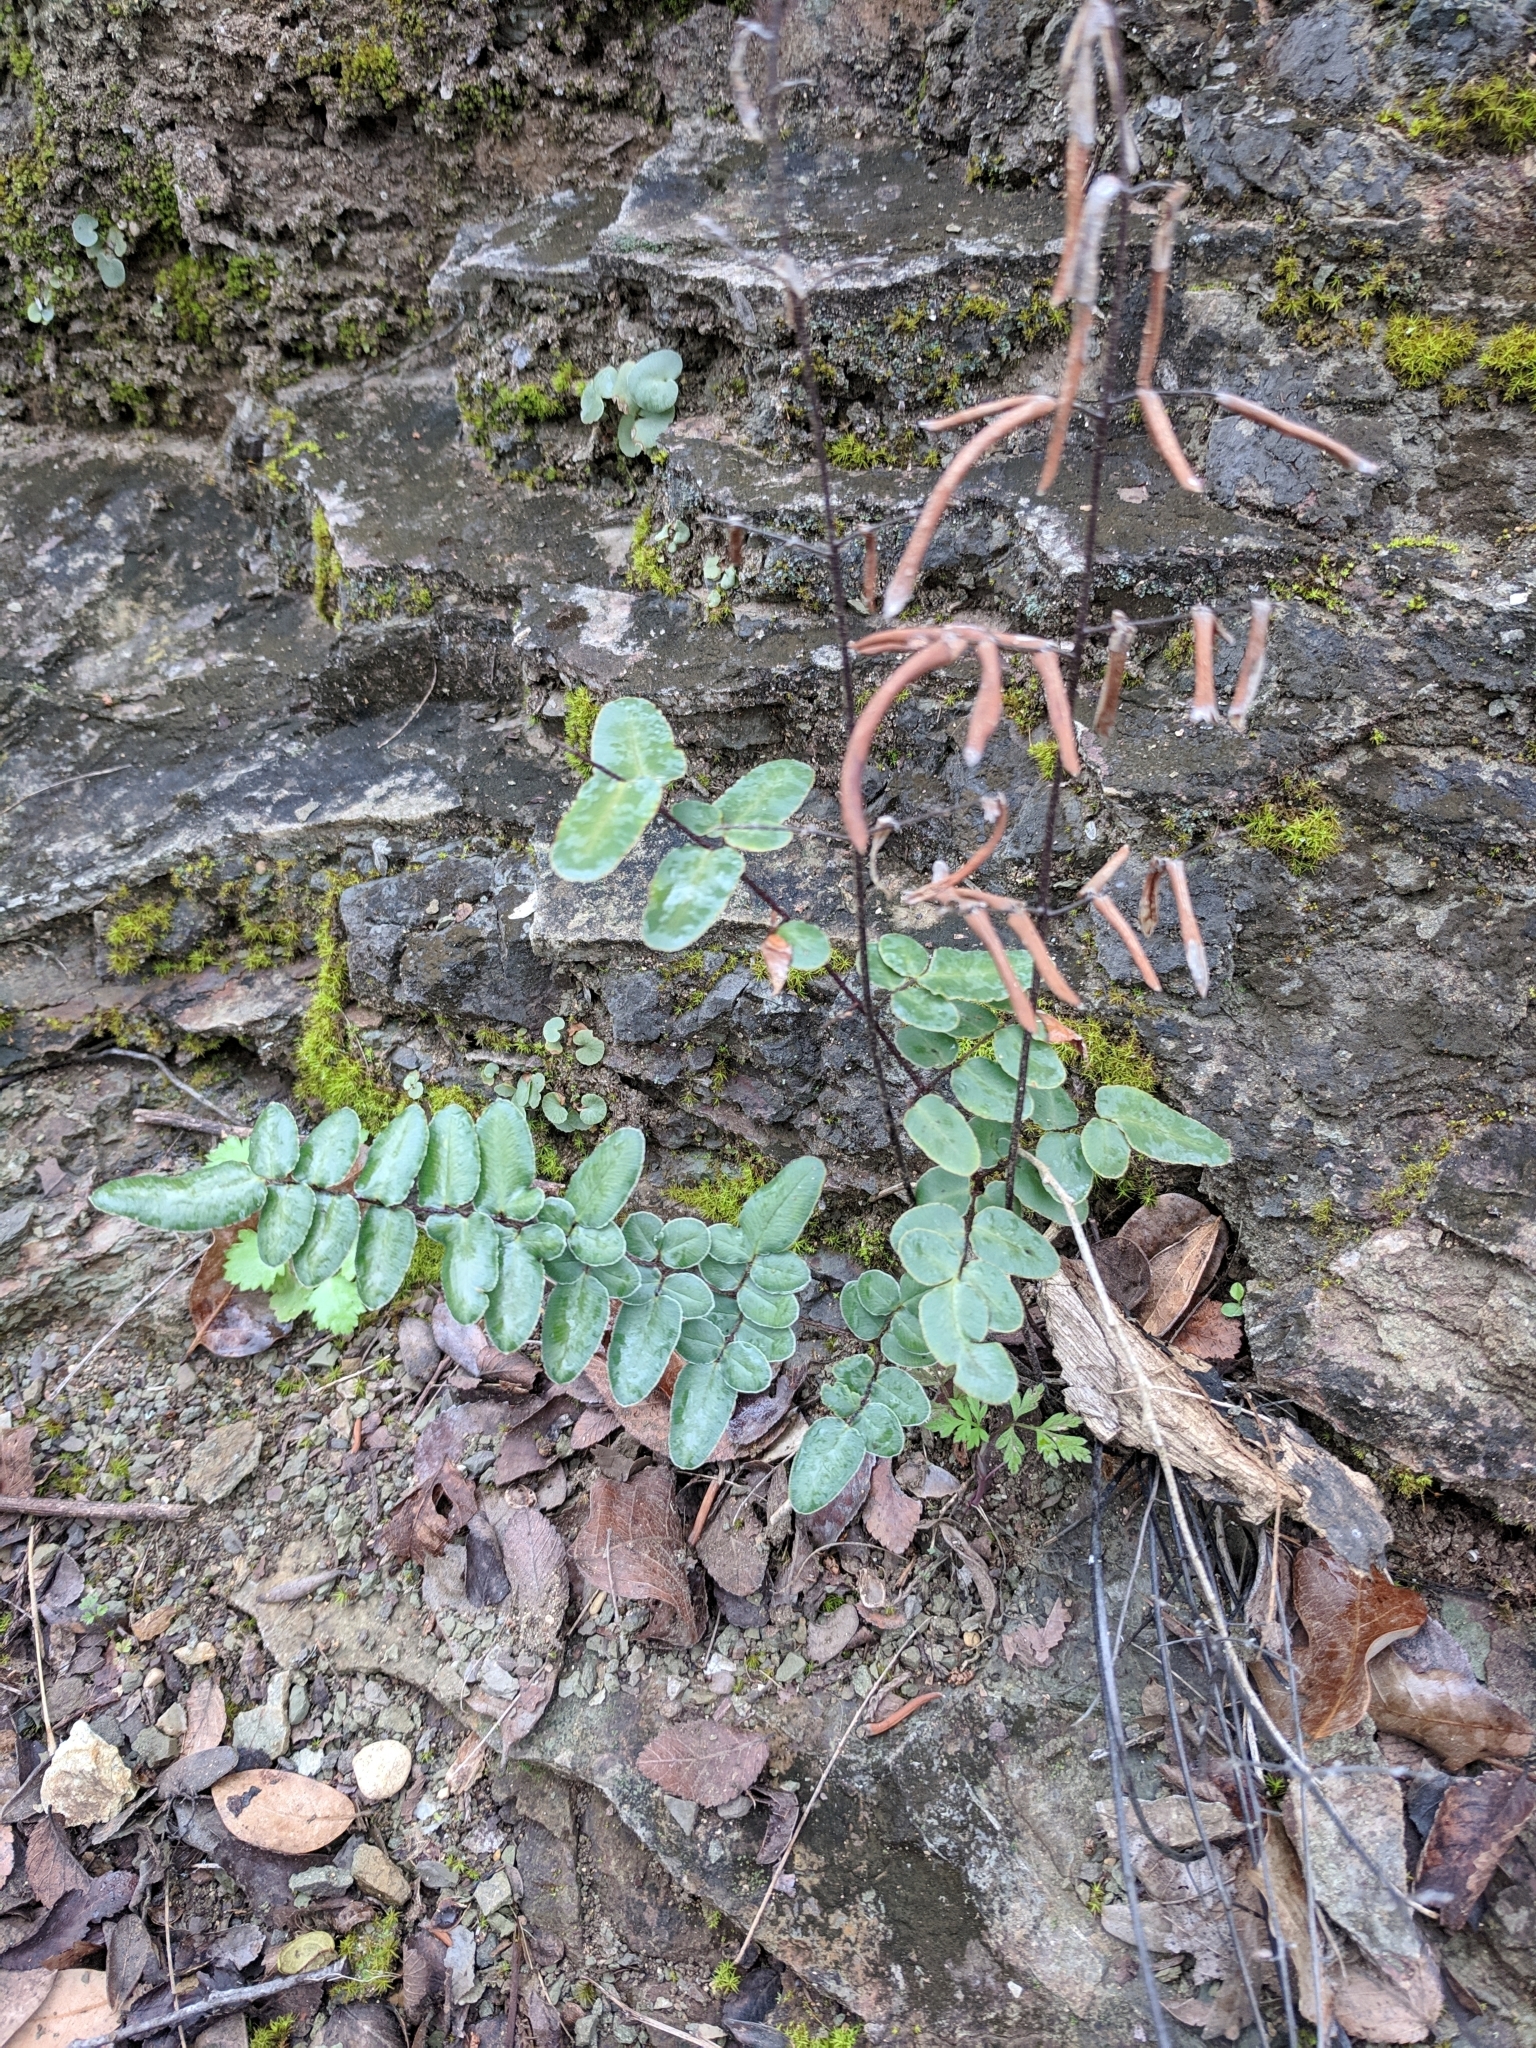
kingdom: Plantae
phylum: Tracheophyta
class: Polypodiopsida
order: Polypodiales
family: Pteridaceae
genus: Pellaea
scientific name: Pellaea atropurpurea
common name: Hairy cliffbrake
